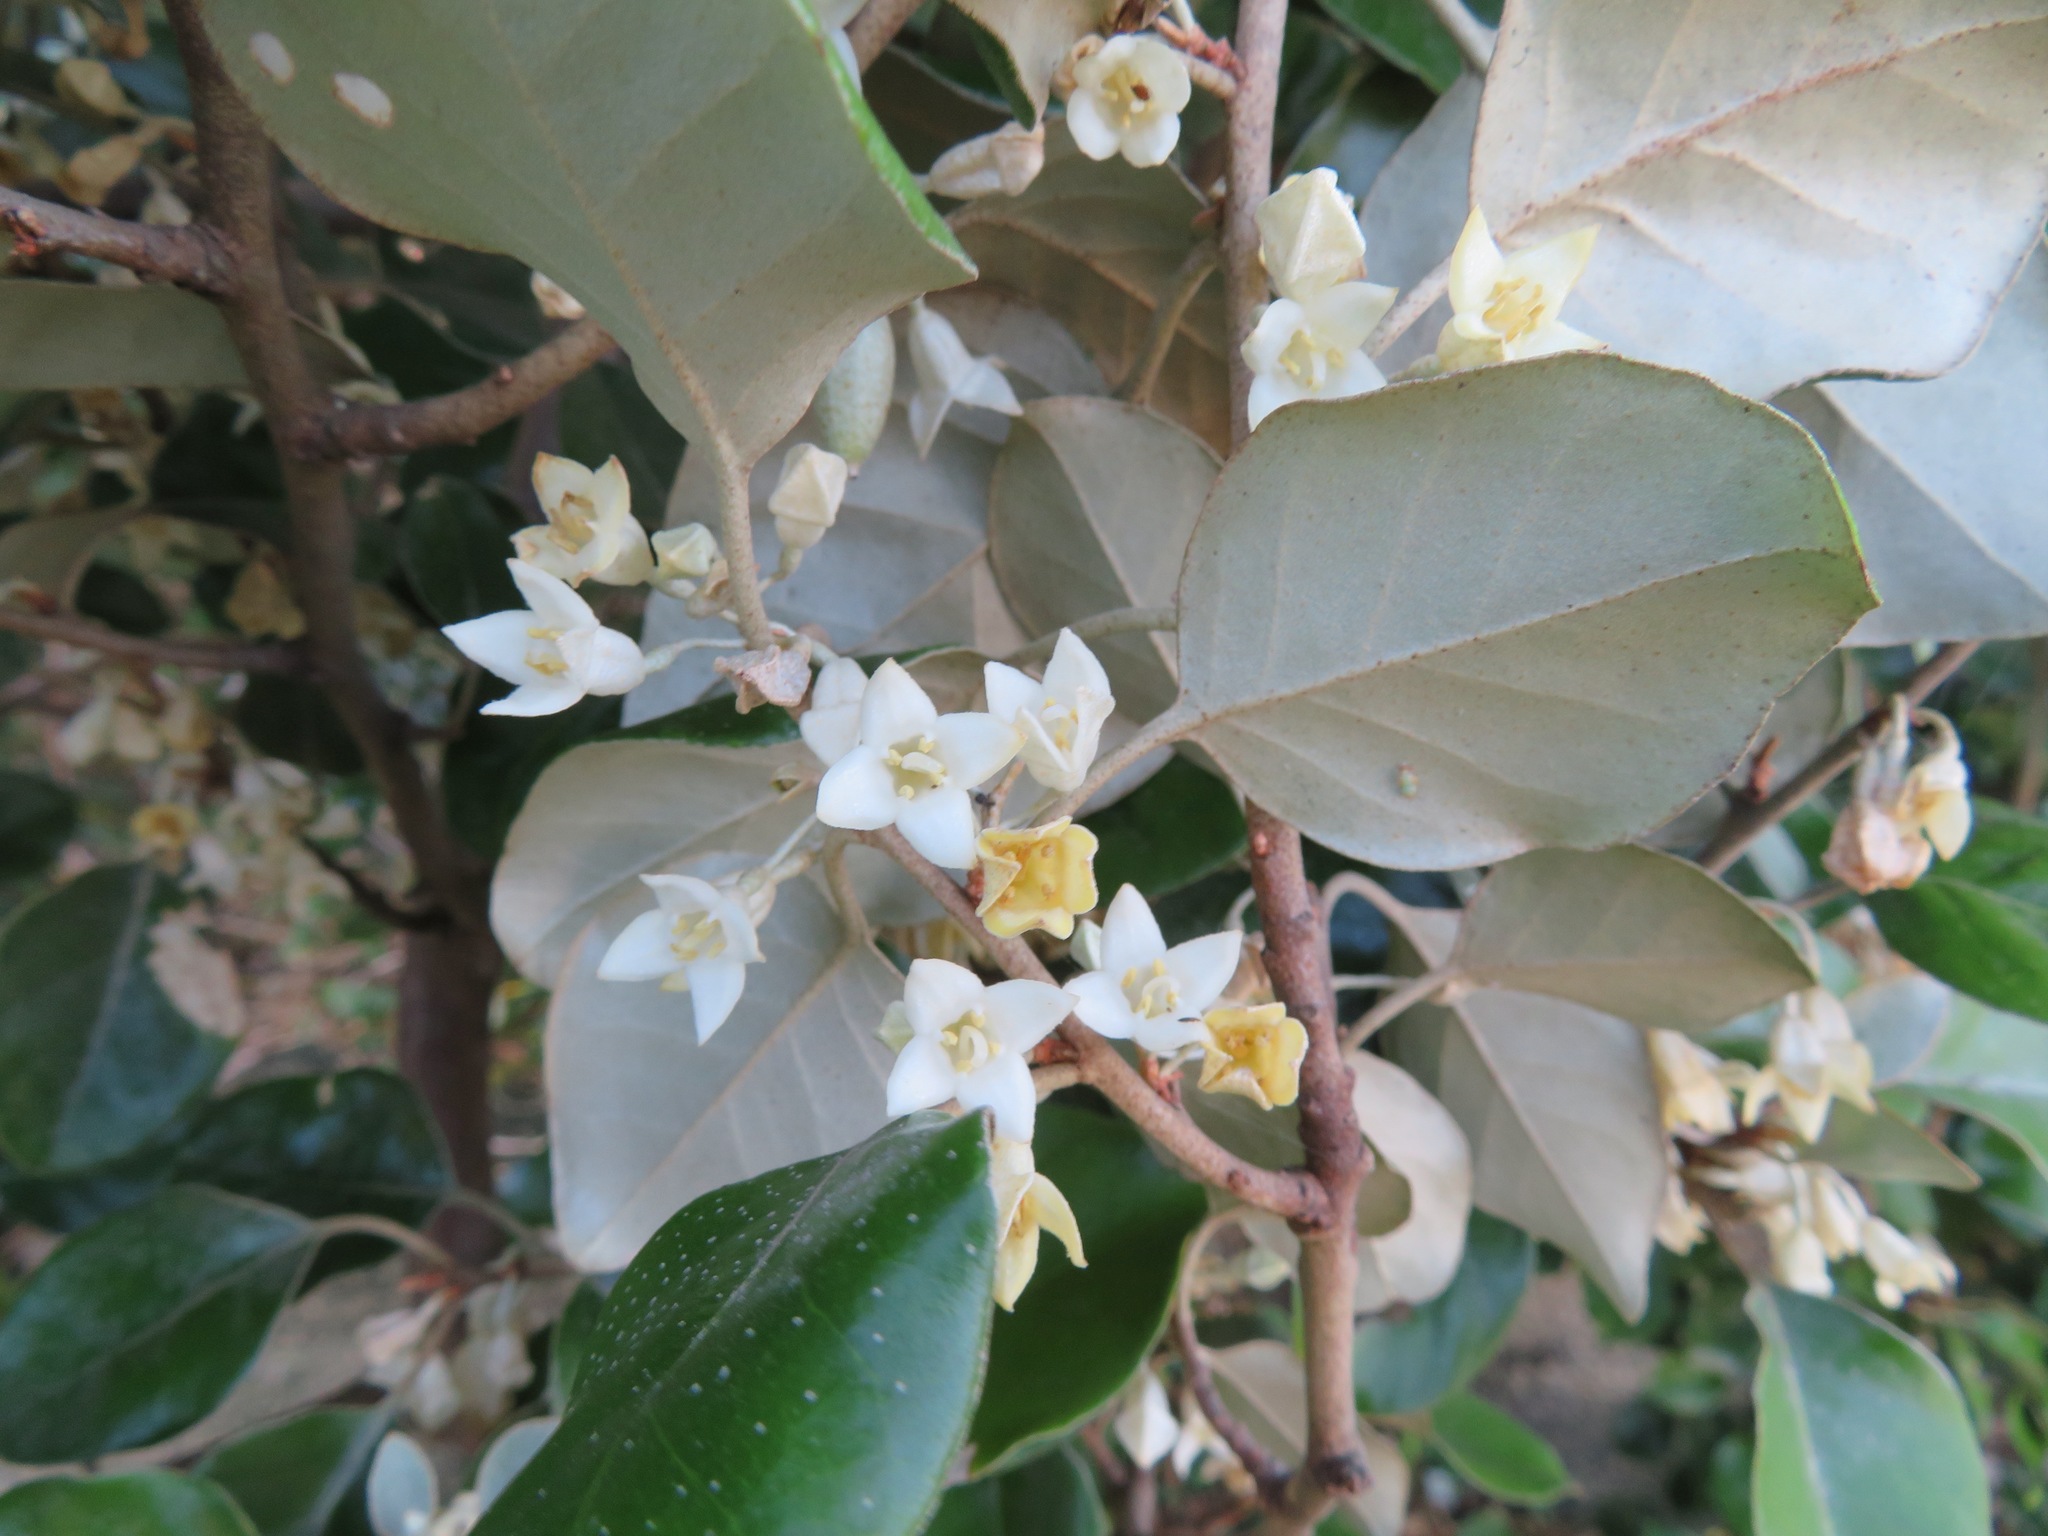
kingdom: Plantae
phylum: Tracheophyta
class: Magnoliopsida
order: Rosales
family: Elaeagnaceae
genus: Elaeagnus
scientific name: Elaeagnus macrophylla
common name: Broad-leaved oleaster
